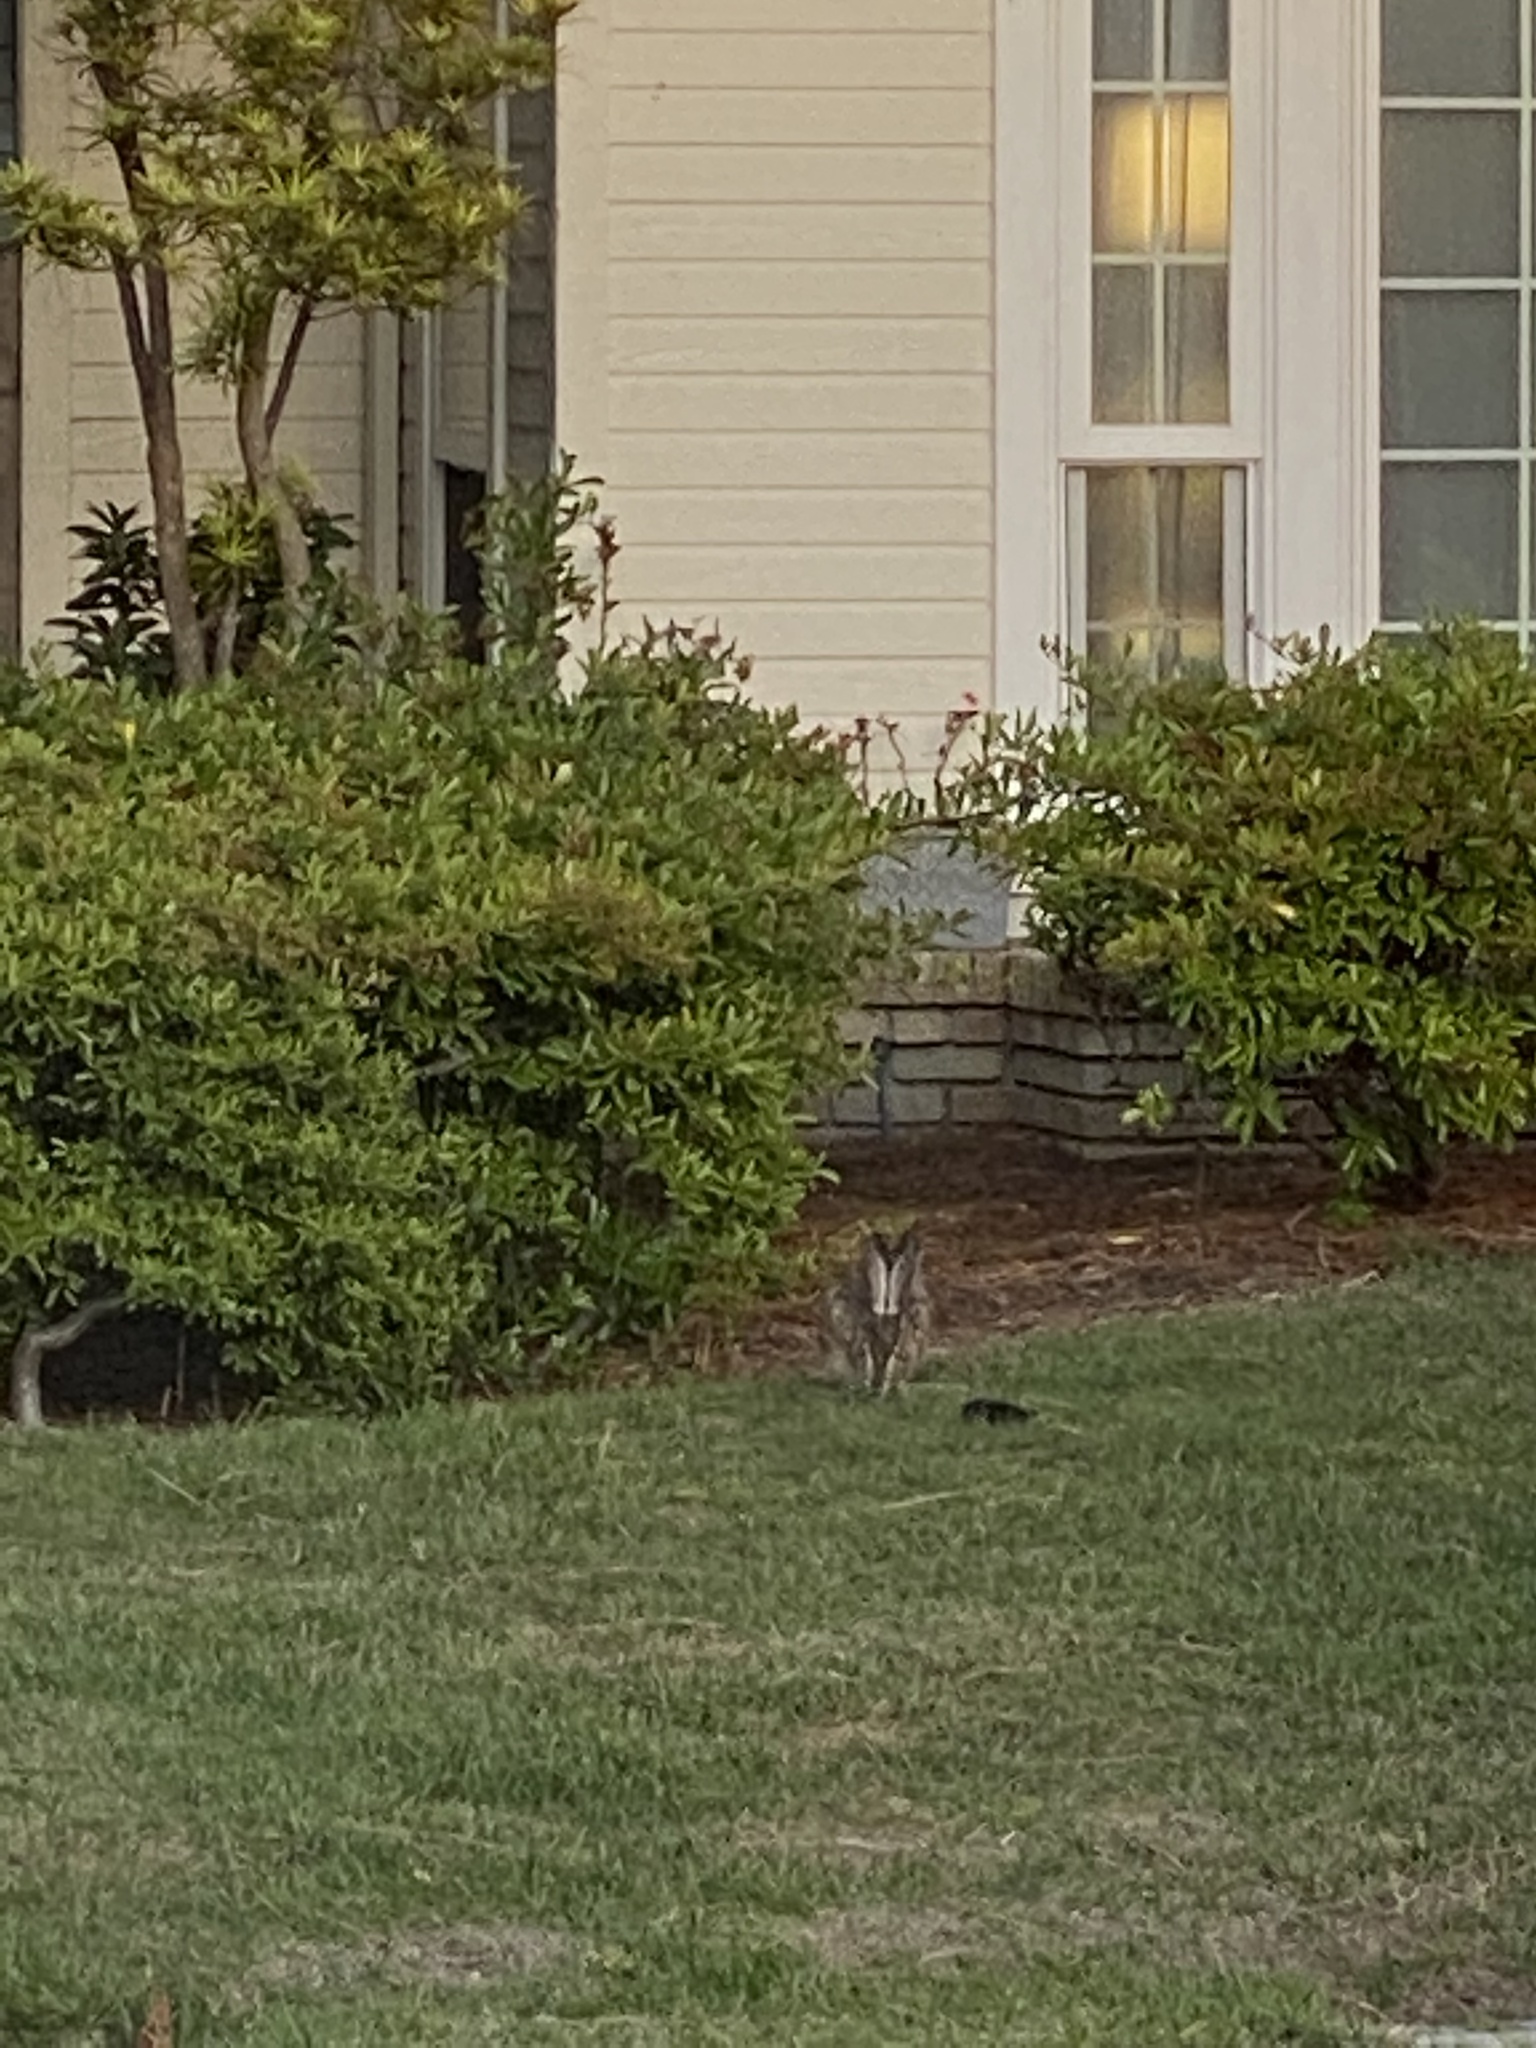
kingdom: Animalia
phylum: Chordata
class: Mammalia
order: Lagomorpha
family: Leporidae
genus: Lepus
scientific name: Lepus californicus
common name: Black-tailed jackrabbit
